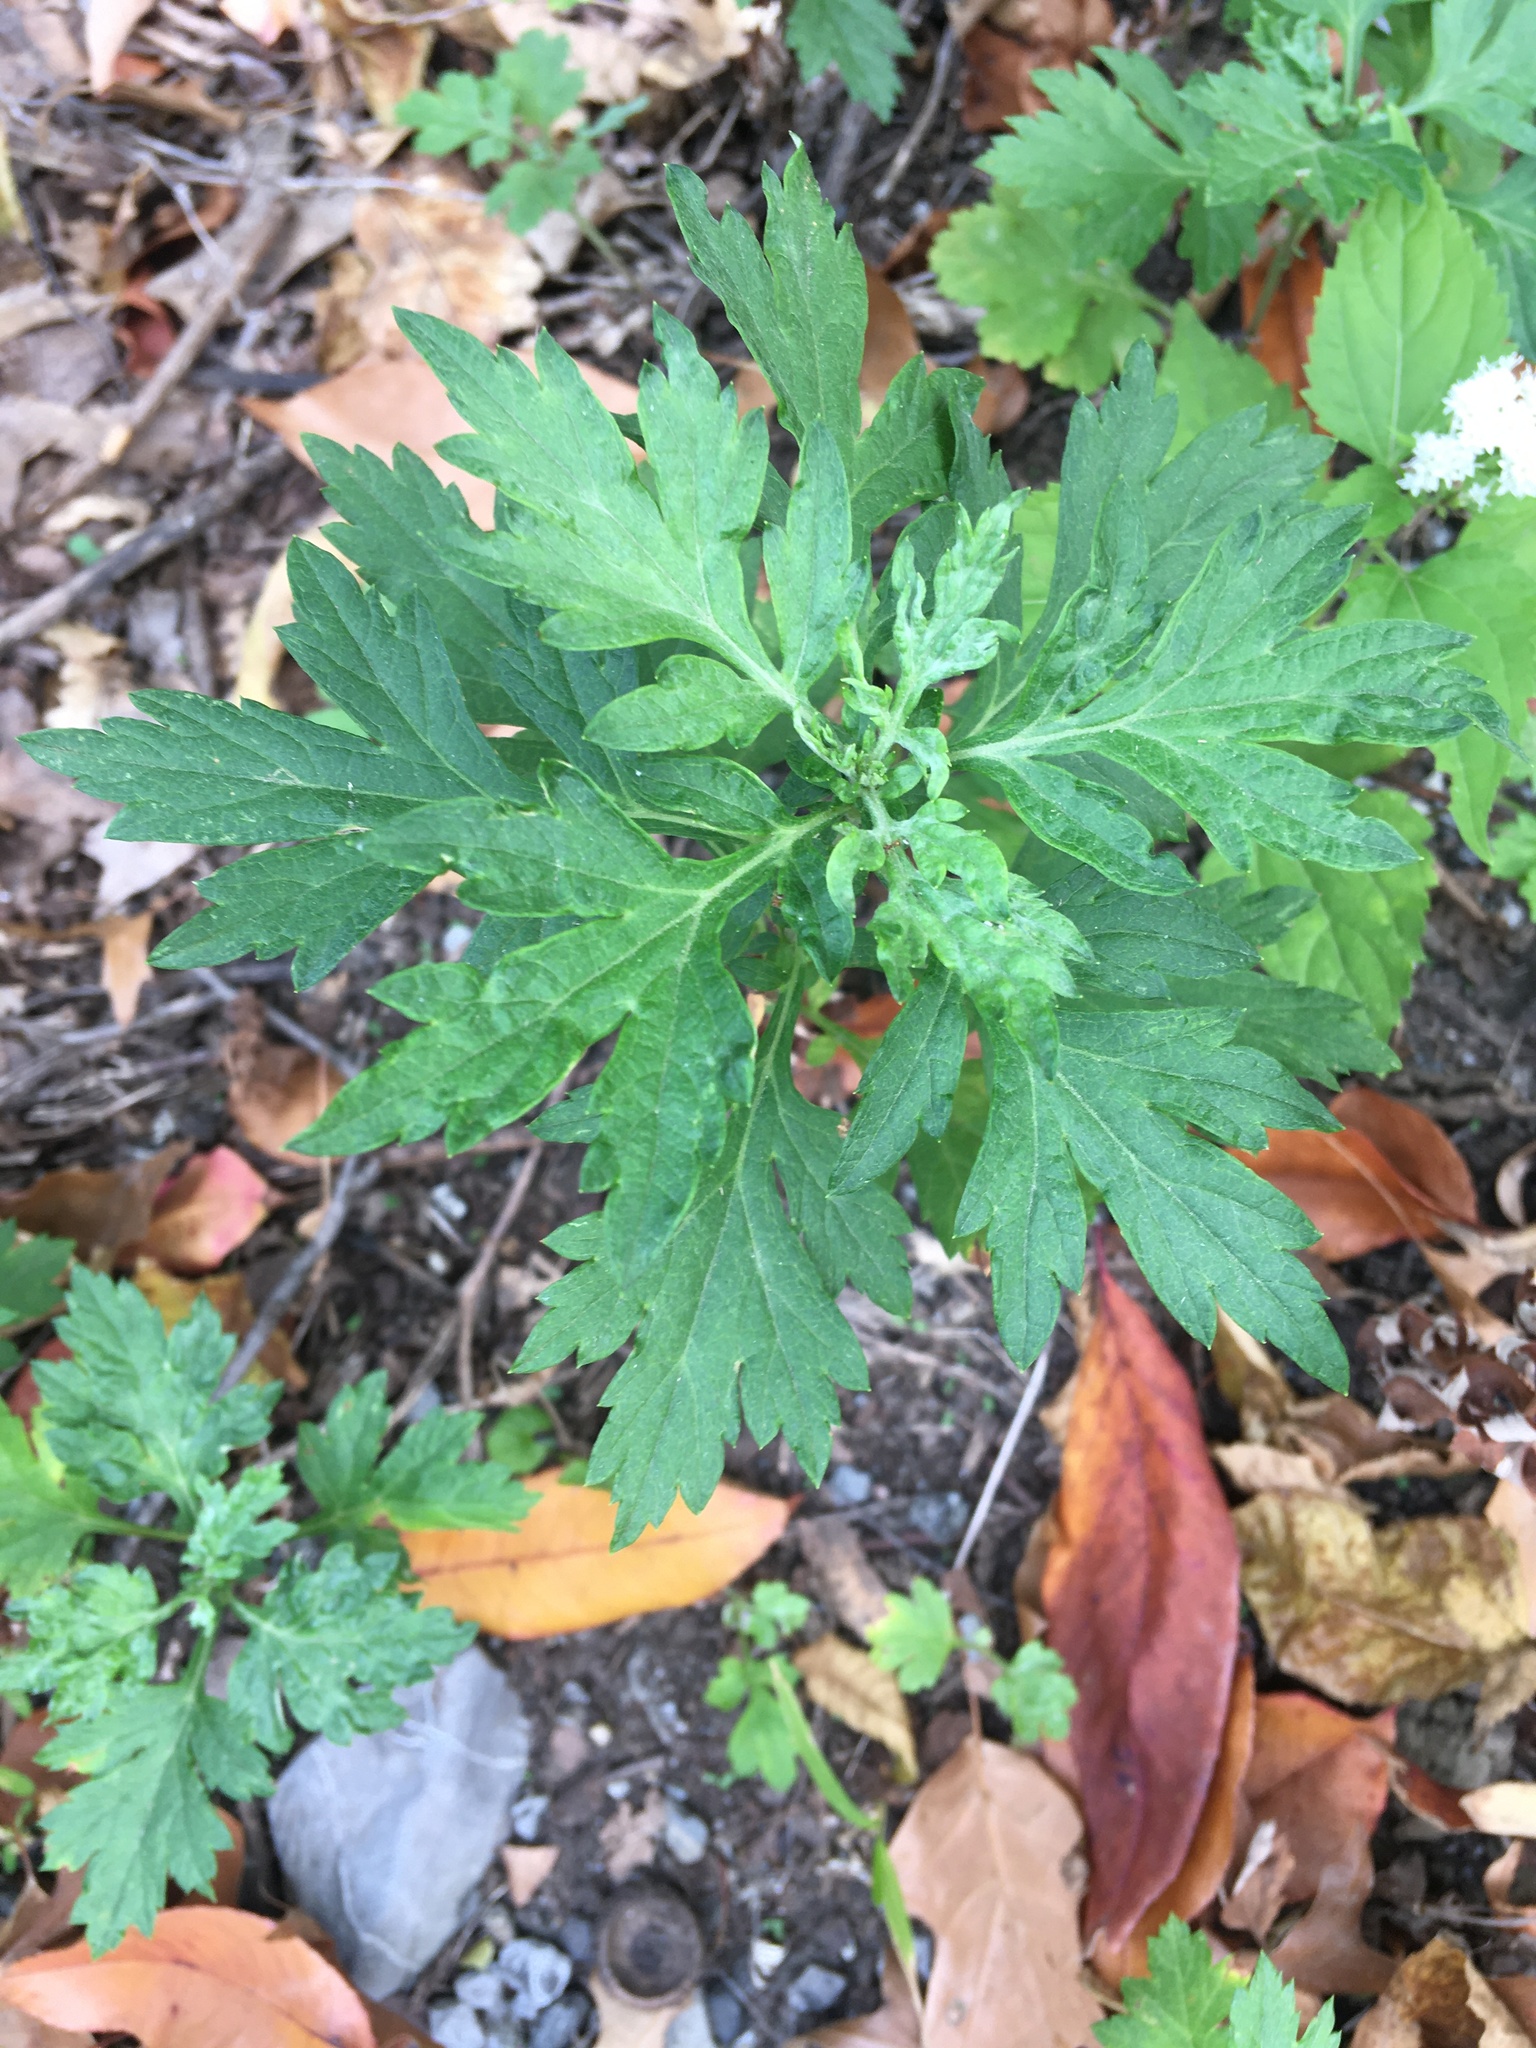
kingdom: Plantae
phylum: Tracheophyta
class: Magnoliopsida
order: Asterales
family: Asteraceae
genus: Artemisia
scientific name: Artemisia vulgaris
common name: Mugwort
